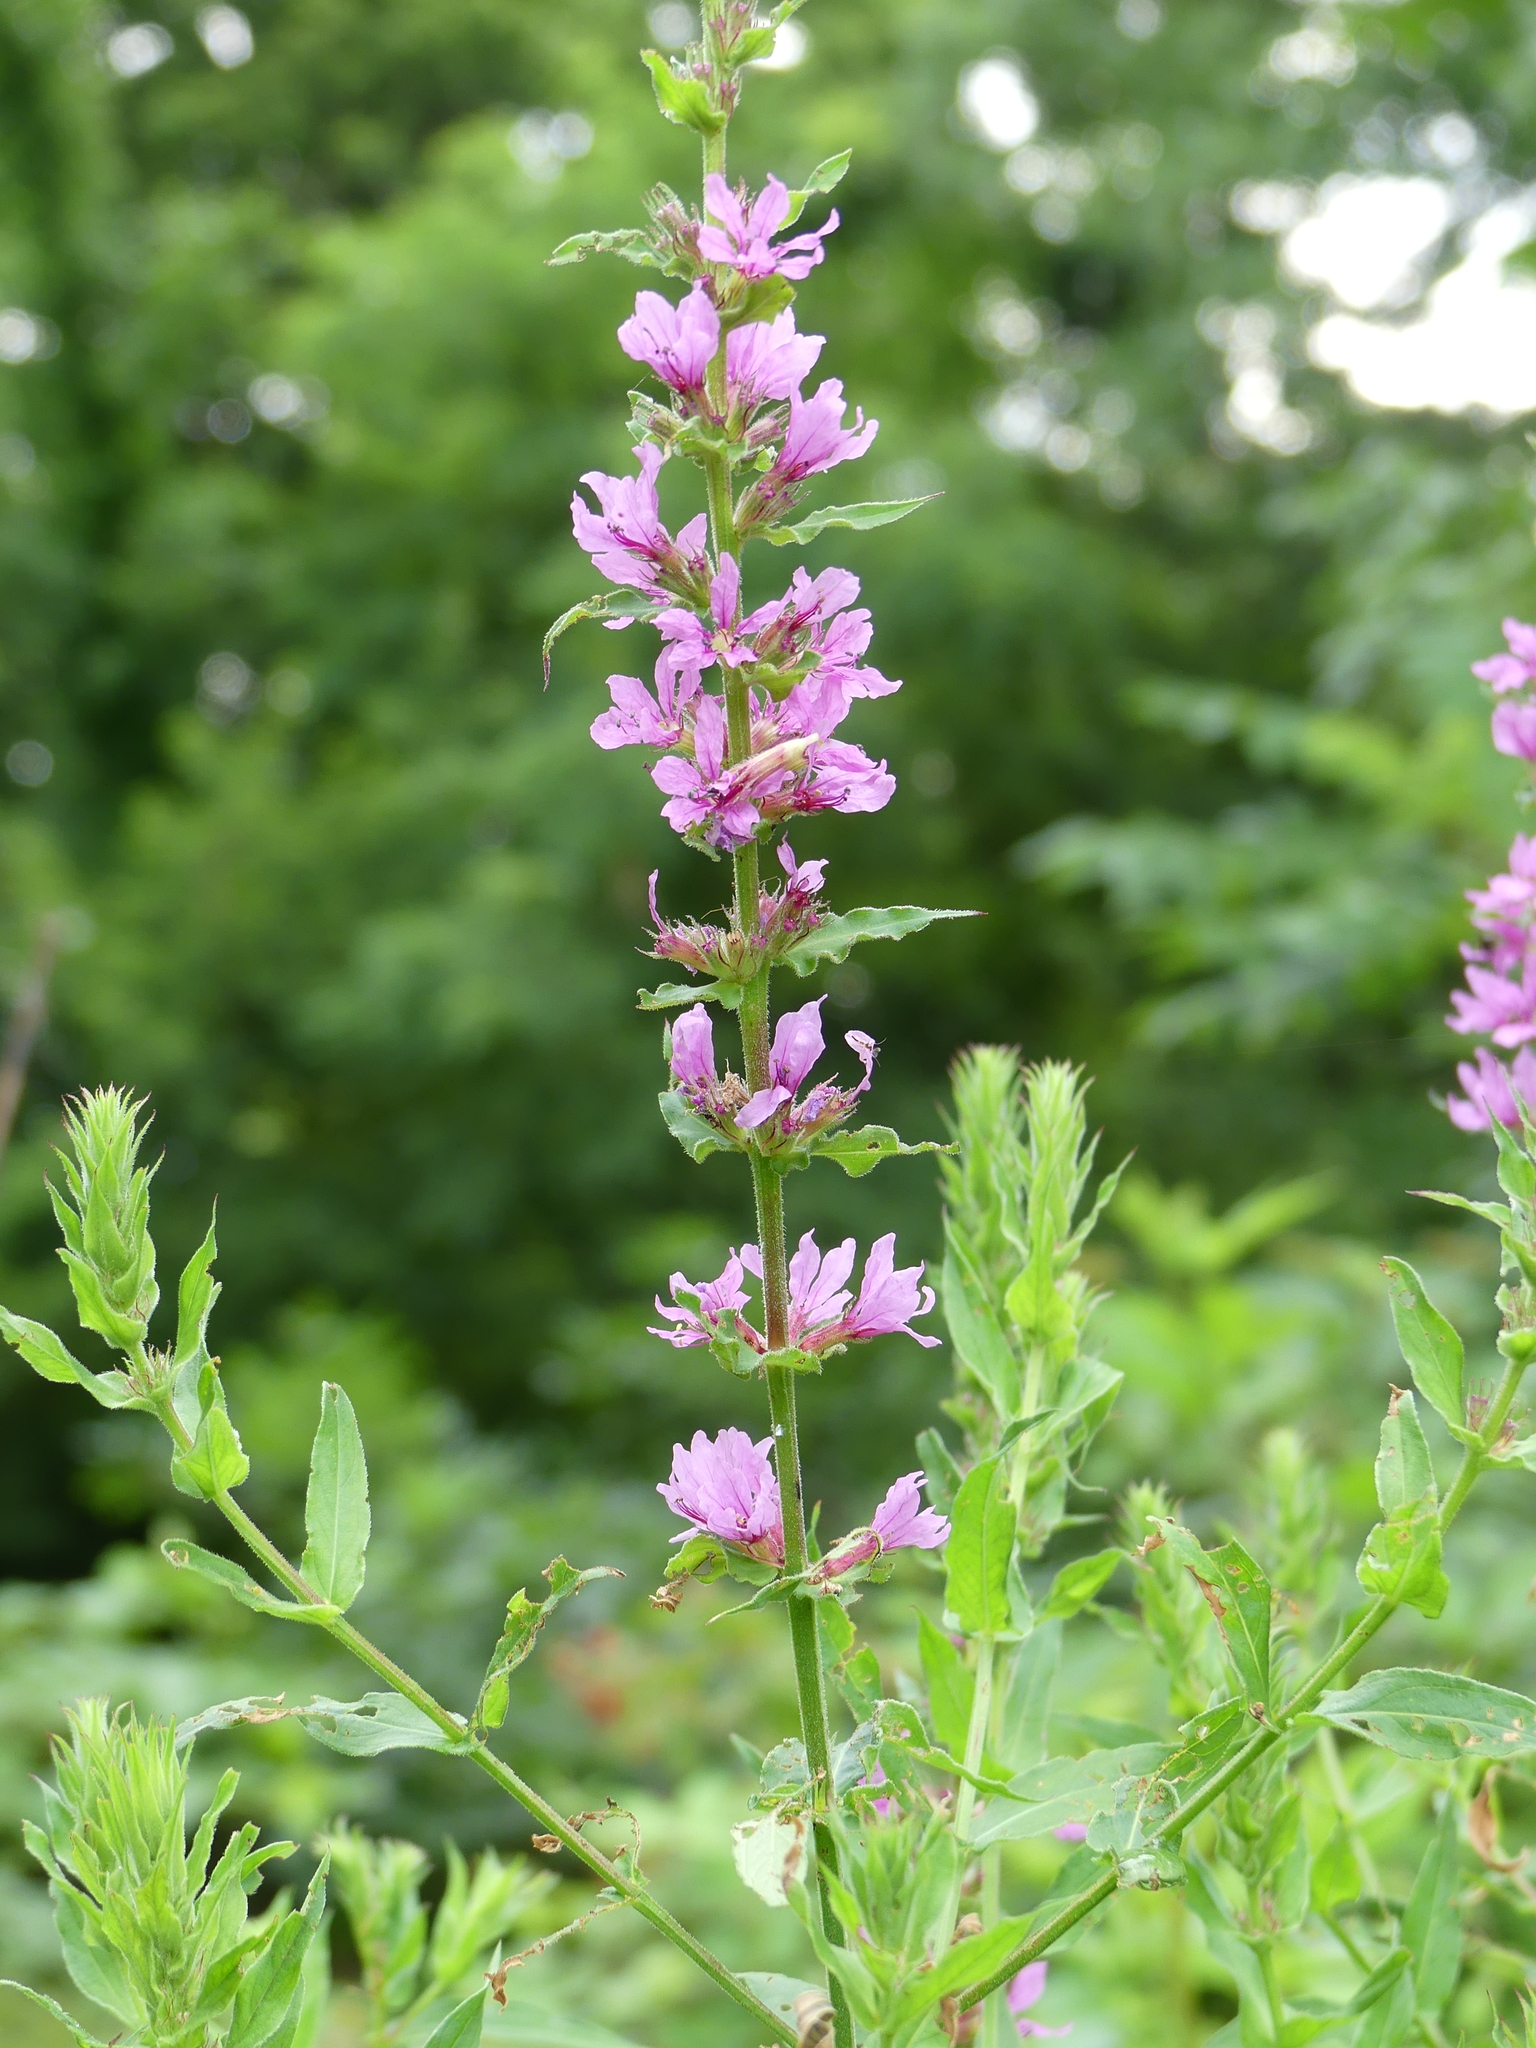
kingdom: Plantae
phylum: Tracheophyta
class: Magnoliopsida
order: Myrtales
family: Lythraceae
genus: Lythrum
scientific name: Lythrum salicaria
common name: Purple loosestrife
